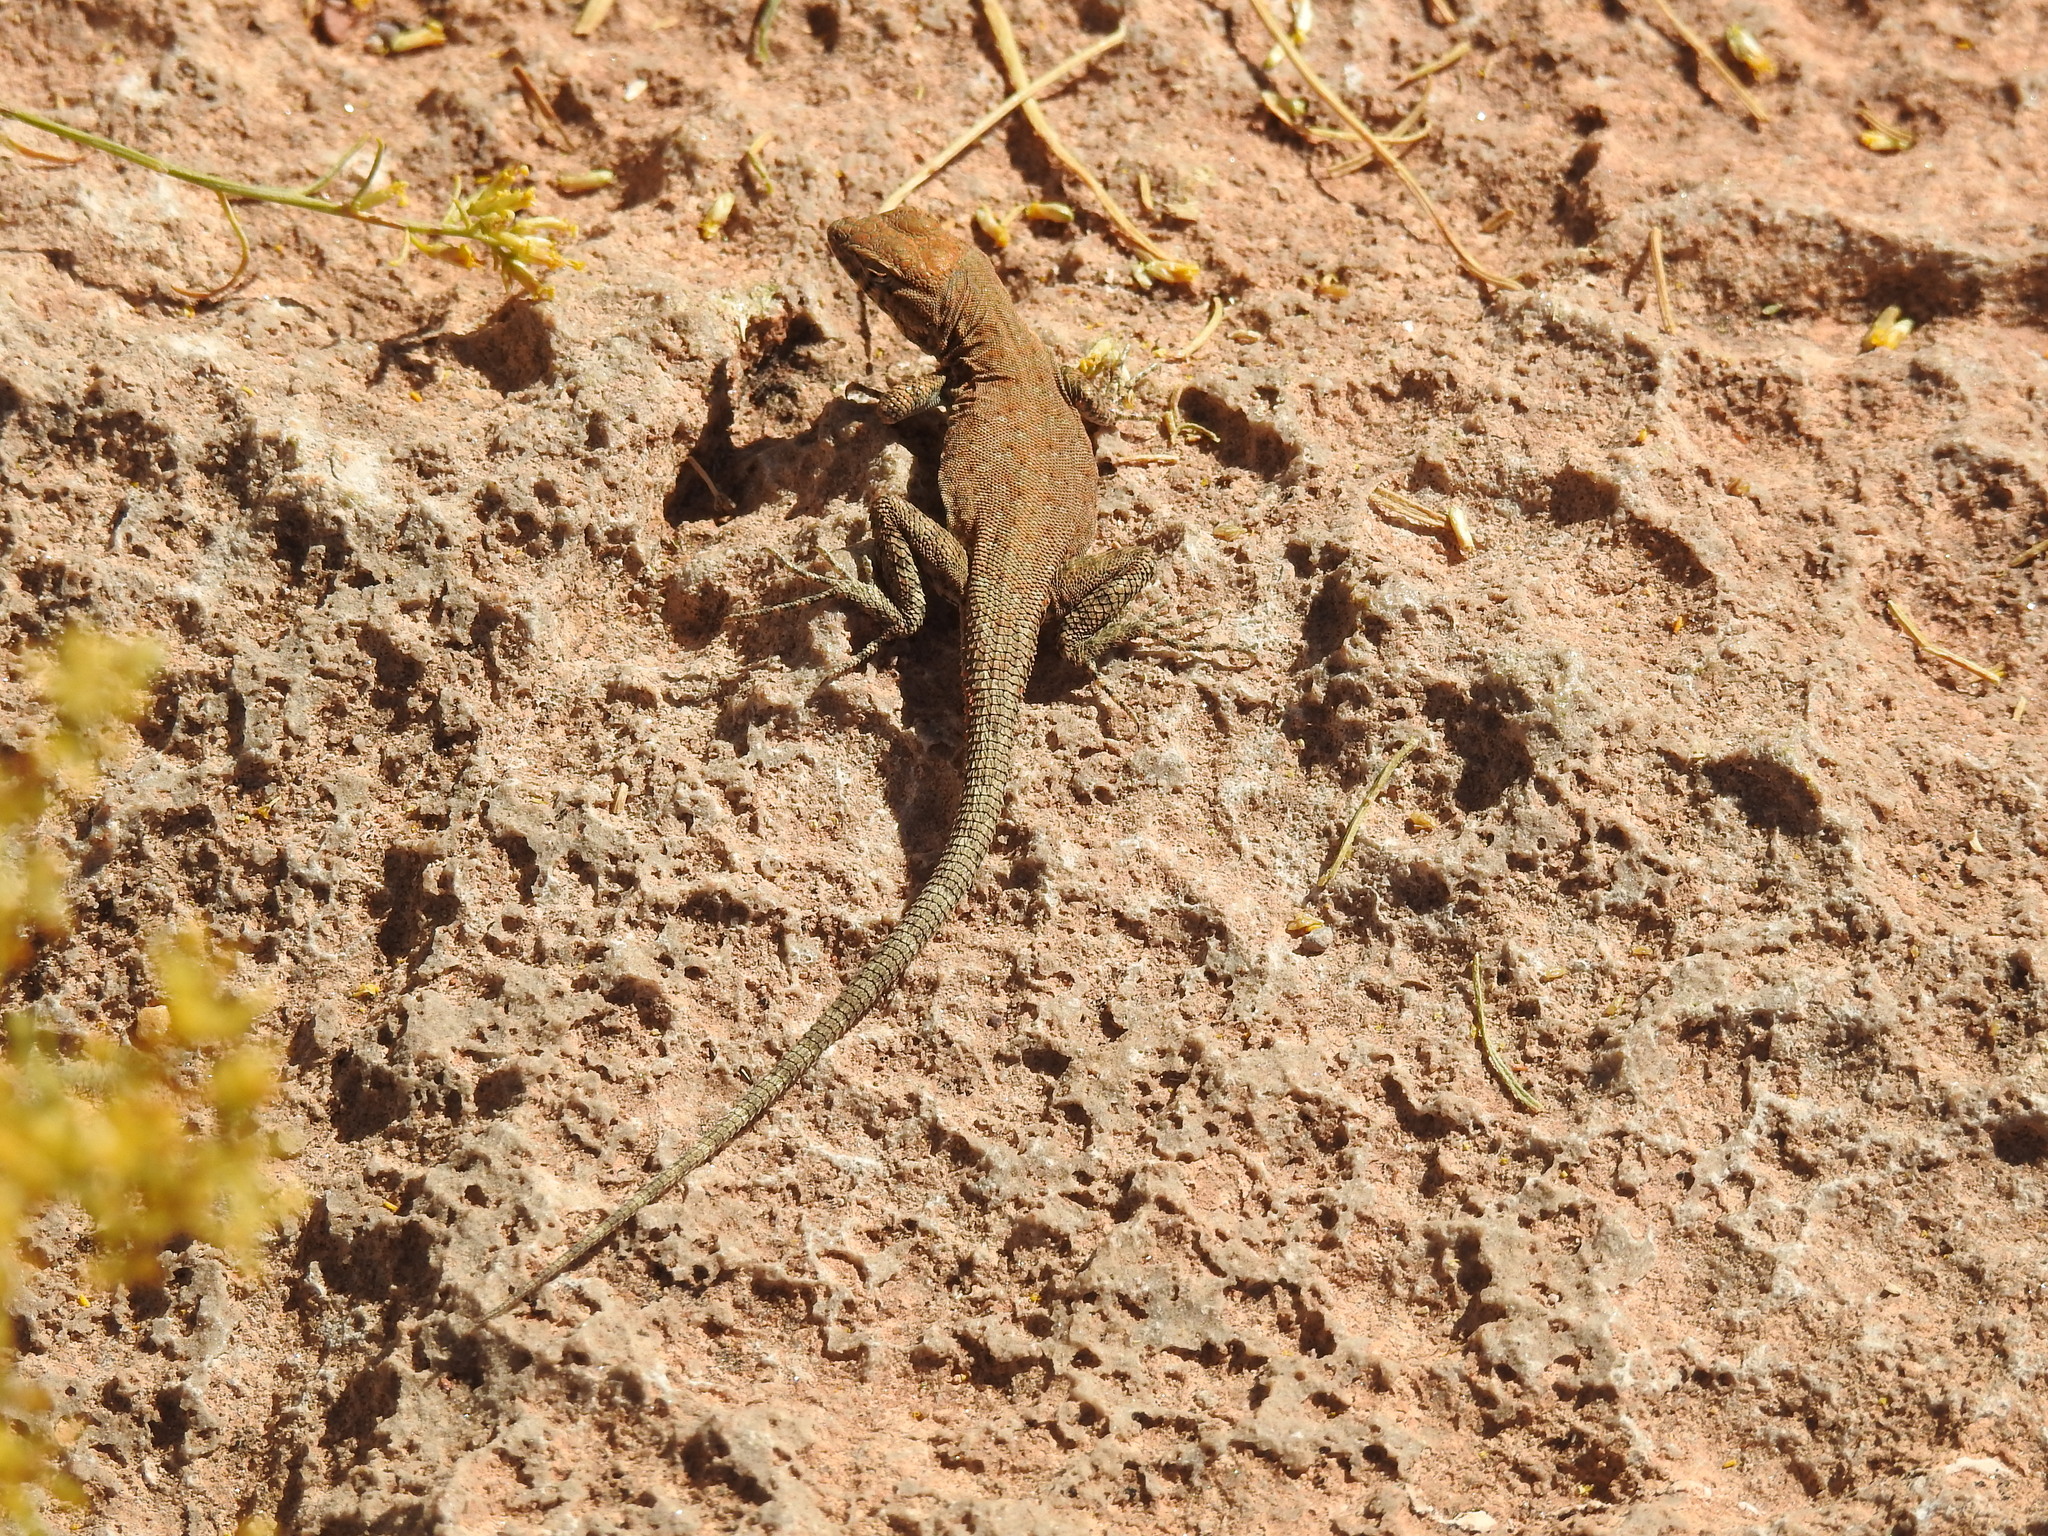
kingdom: Animalia
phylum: Chordata
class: Squamata
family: Phrynosomatidae
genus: Uta
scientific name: Uta stansburiana
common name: Side-blotched lizard
